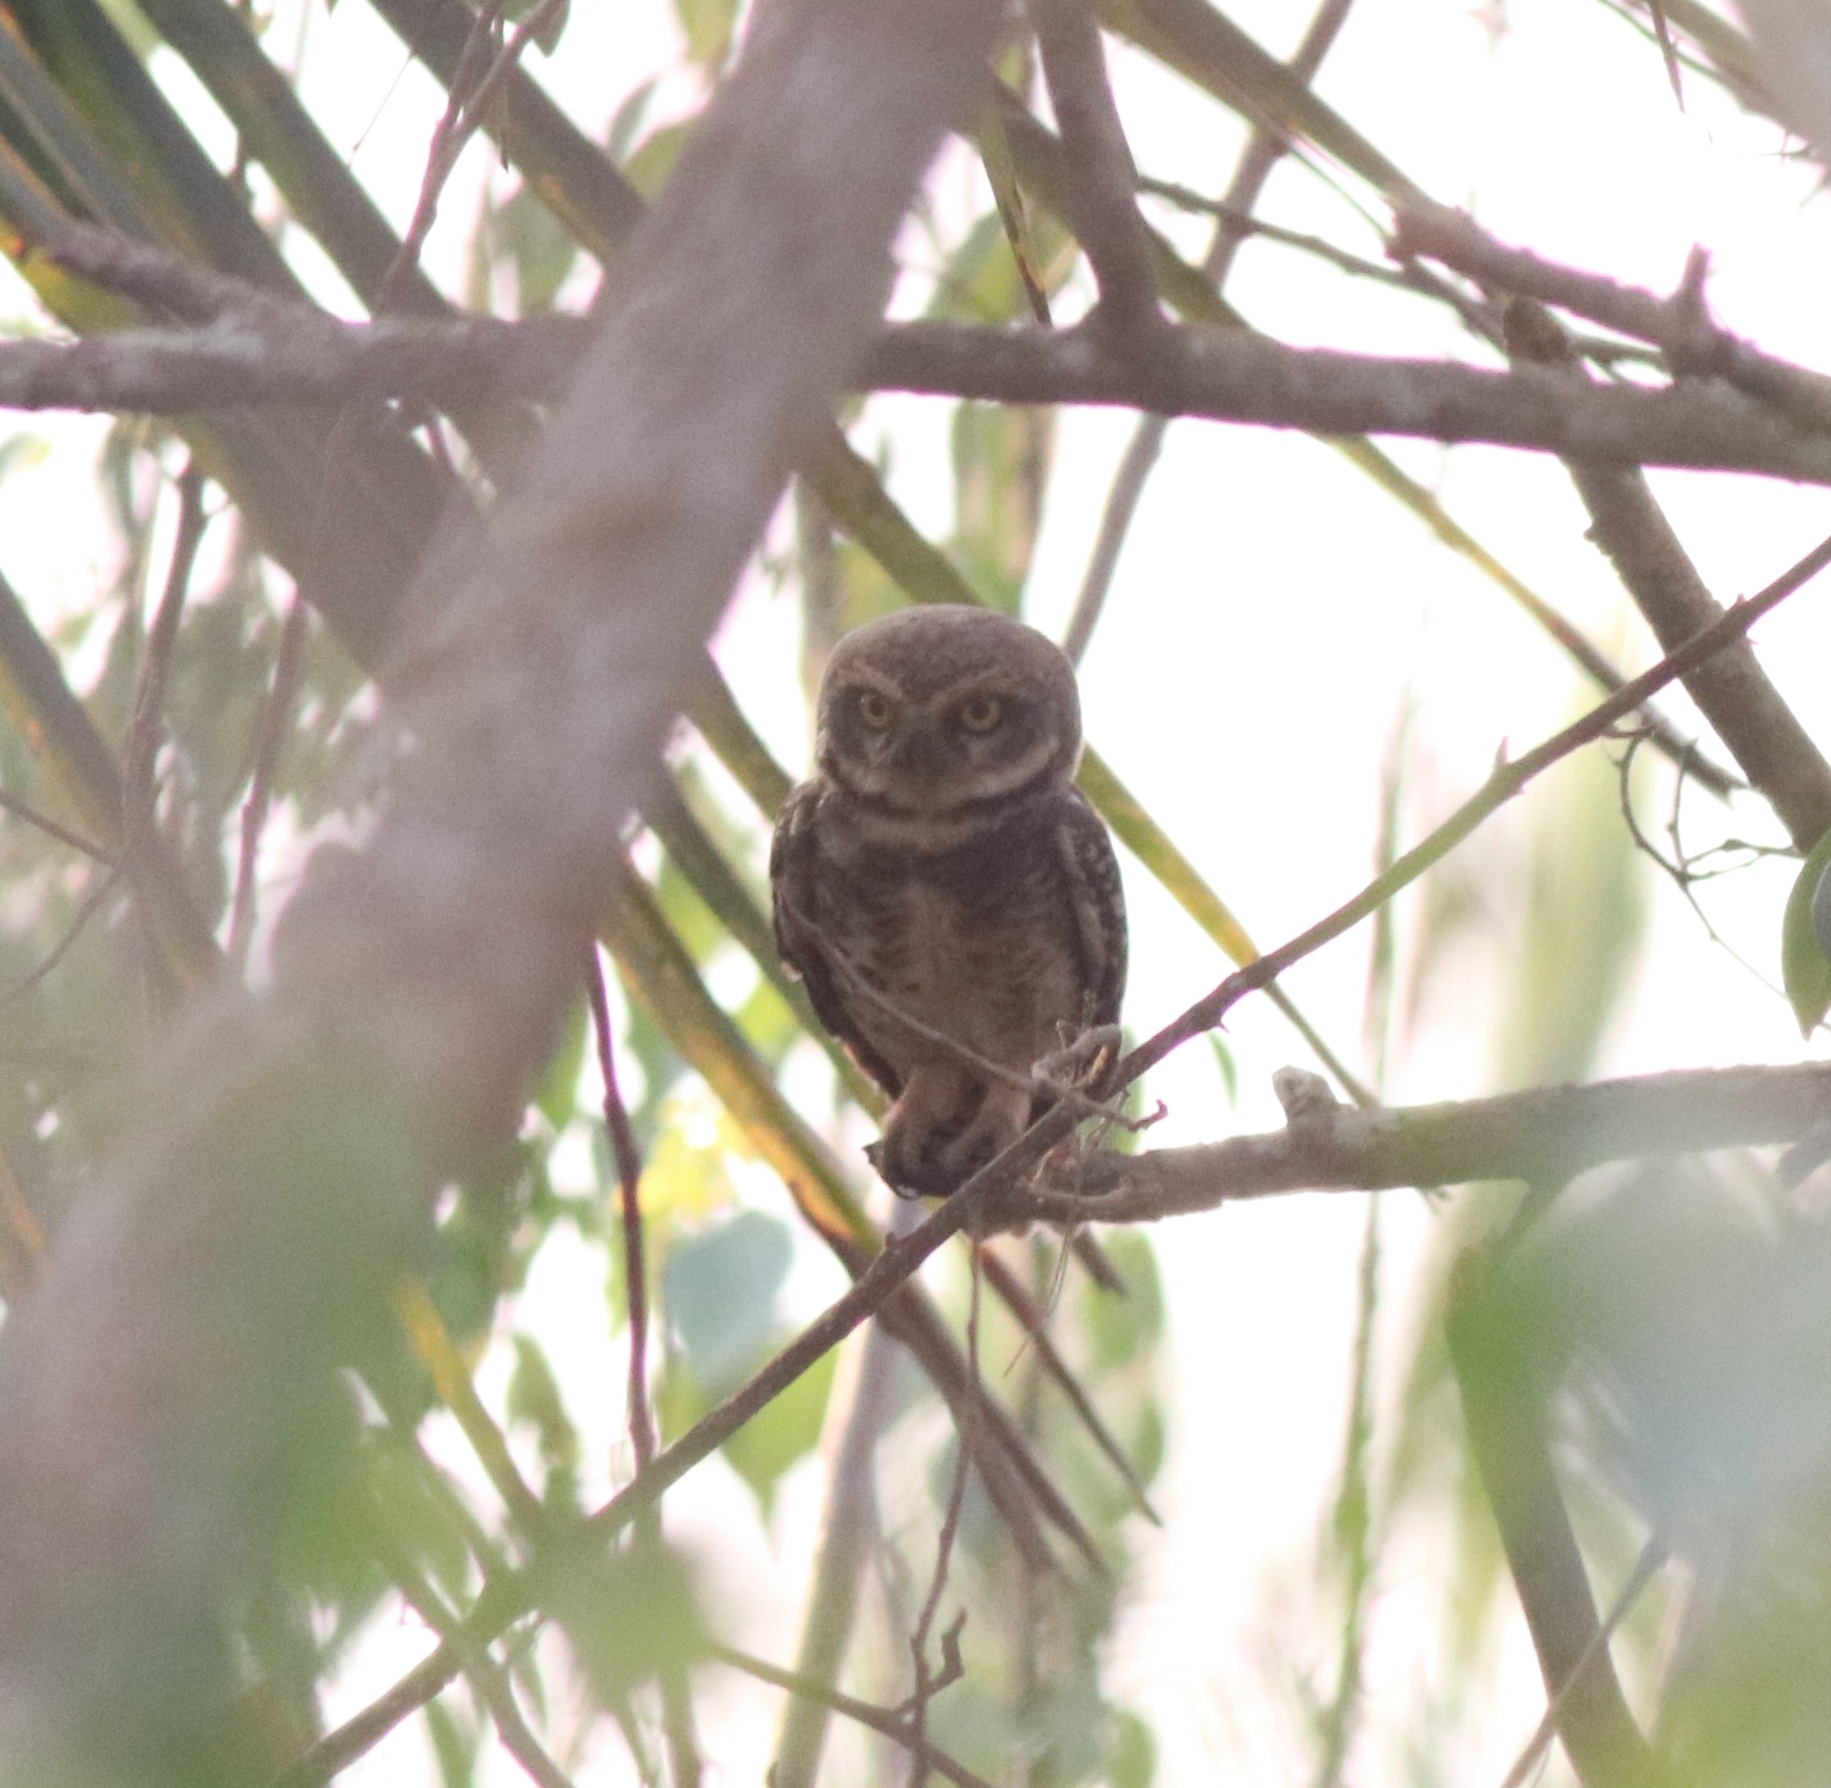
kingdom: Animalia
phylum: Chordata
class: Aves
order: Strigiformes
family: Strigidae
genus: Athene
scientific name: Athene brama
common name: Spotted owlet
